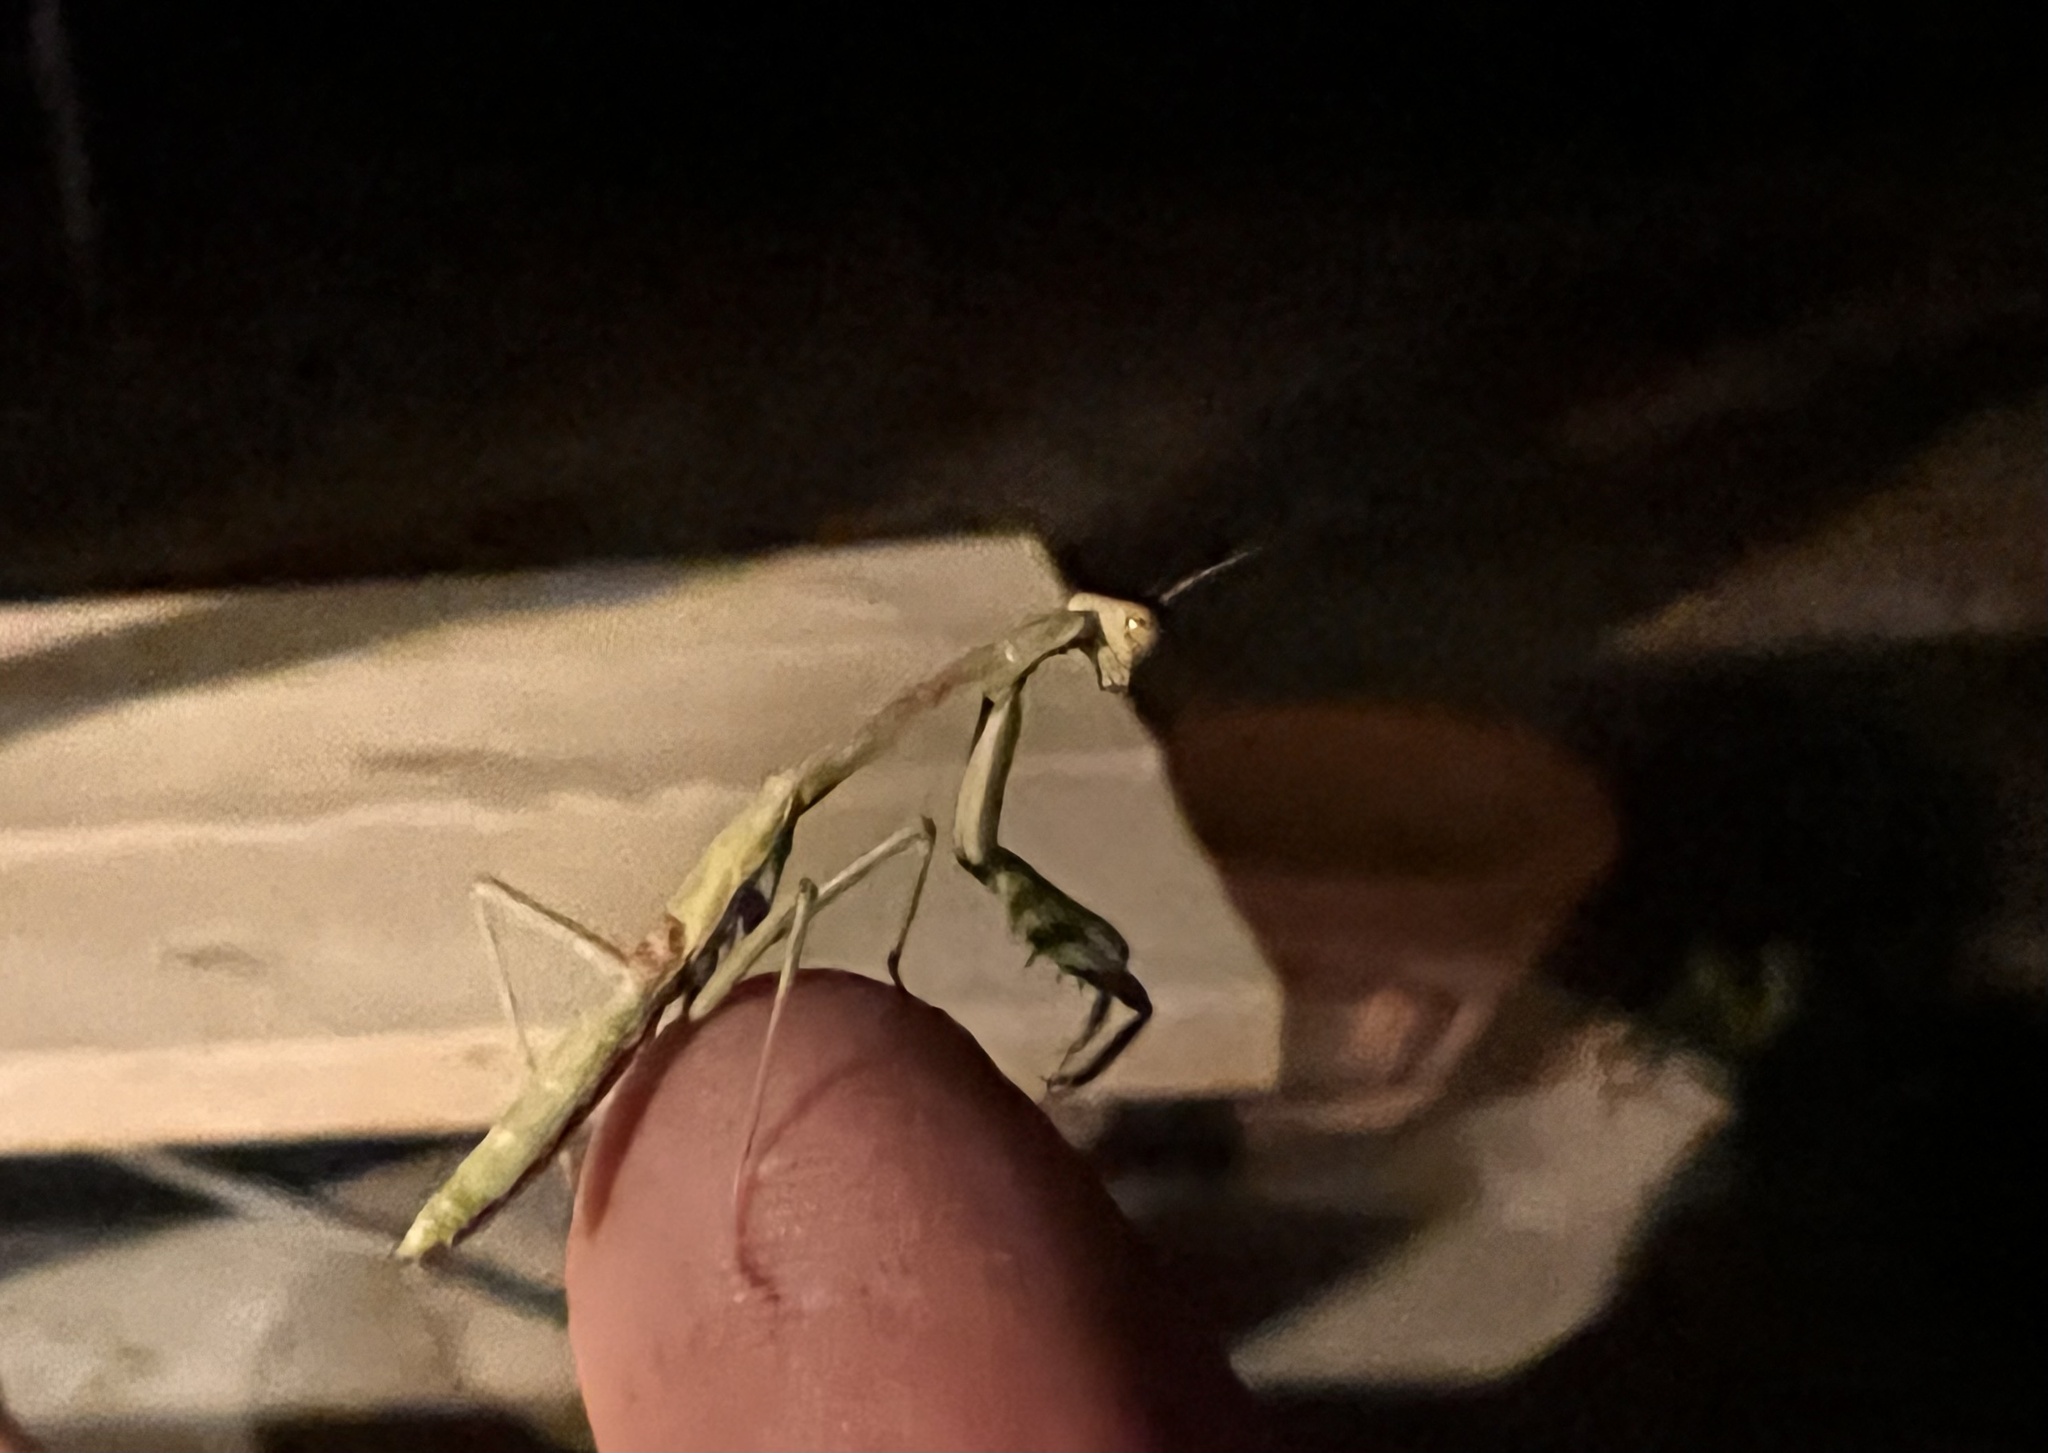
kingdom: Animalia
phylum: Arthropoda
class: Insecta
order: Mantodea
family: Mantidae
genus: Stagmomantis
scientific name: Stagmomantis carolina
